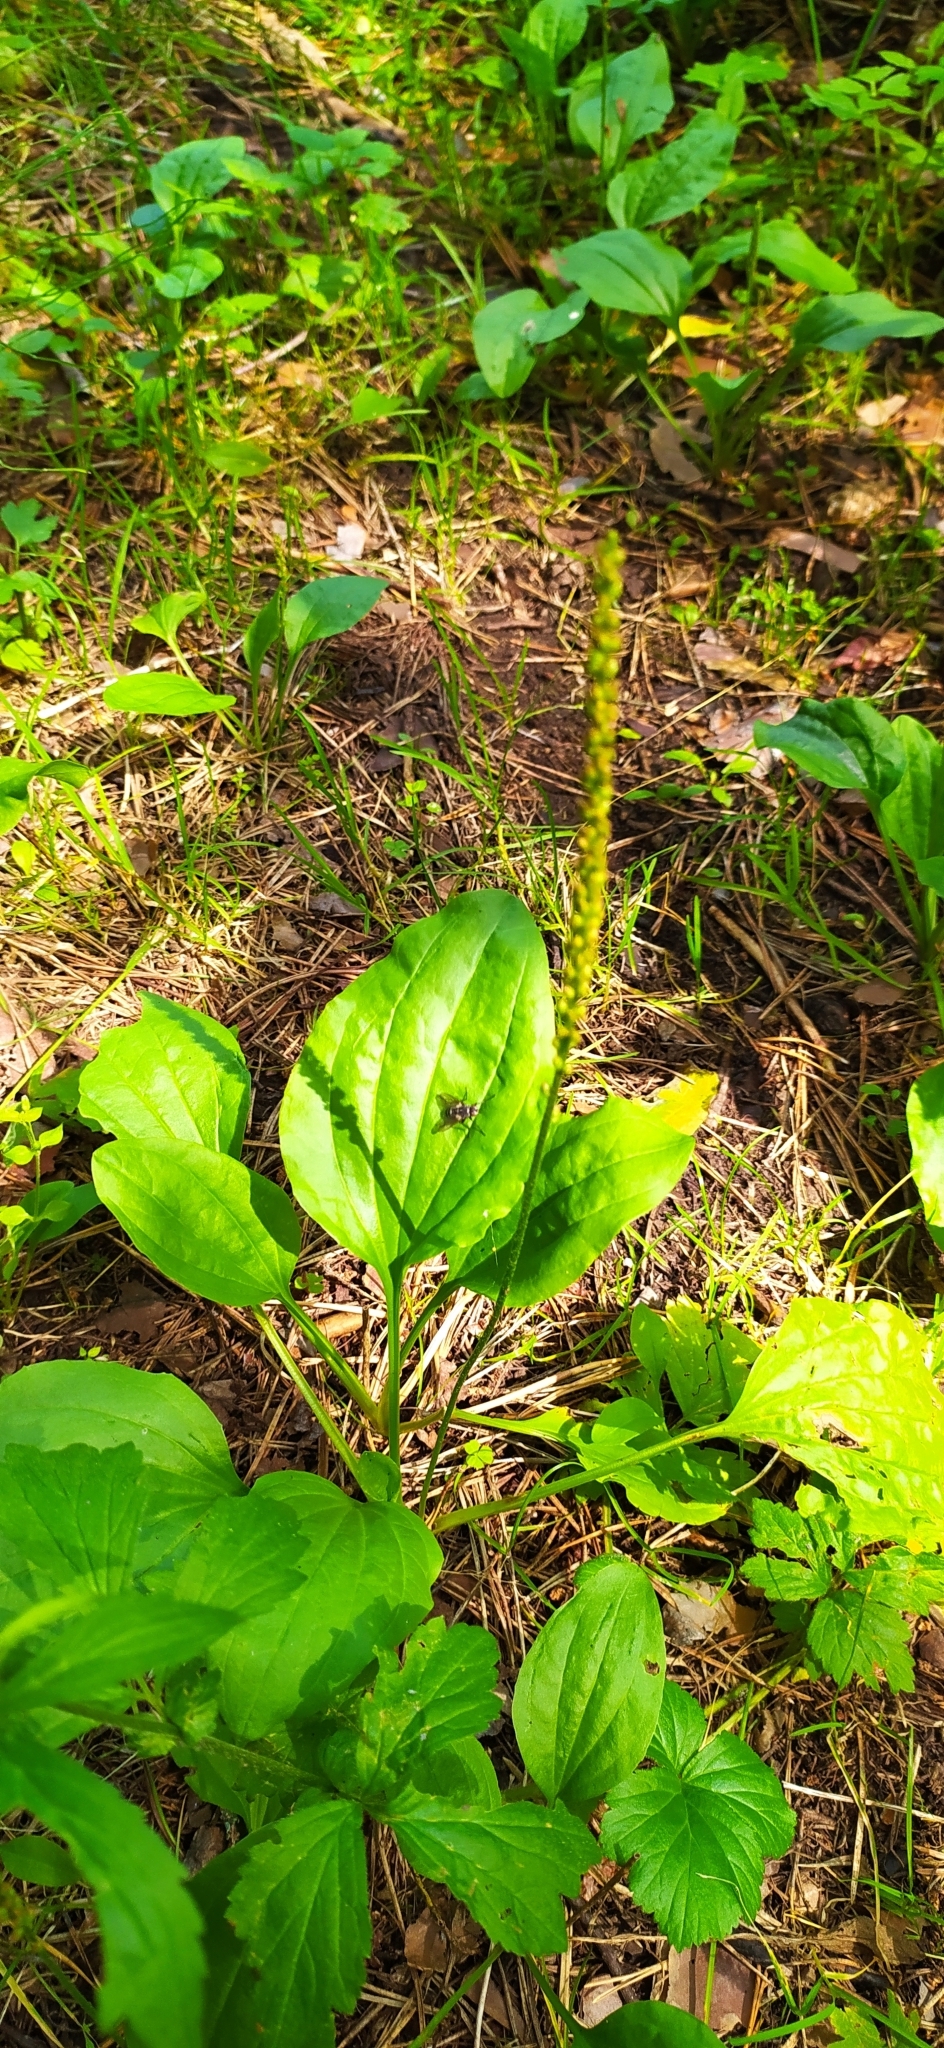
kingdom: Plantae
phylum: Tracheophyta
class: Magnoliopsida
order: Lamiales
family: Plantaginaceae
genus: Plantago
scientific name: Plantago major
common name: Common plantain
